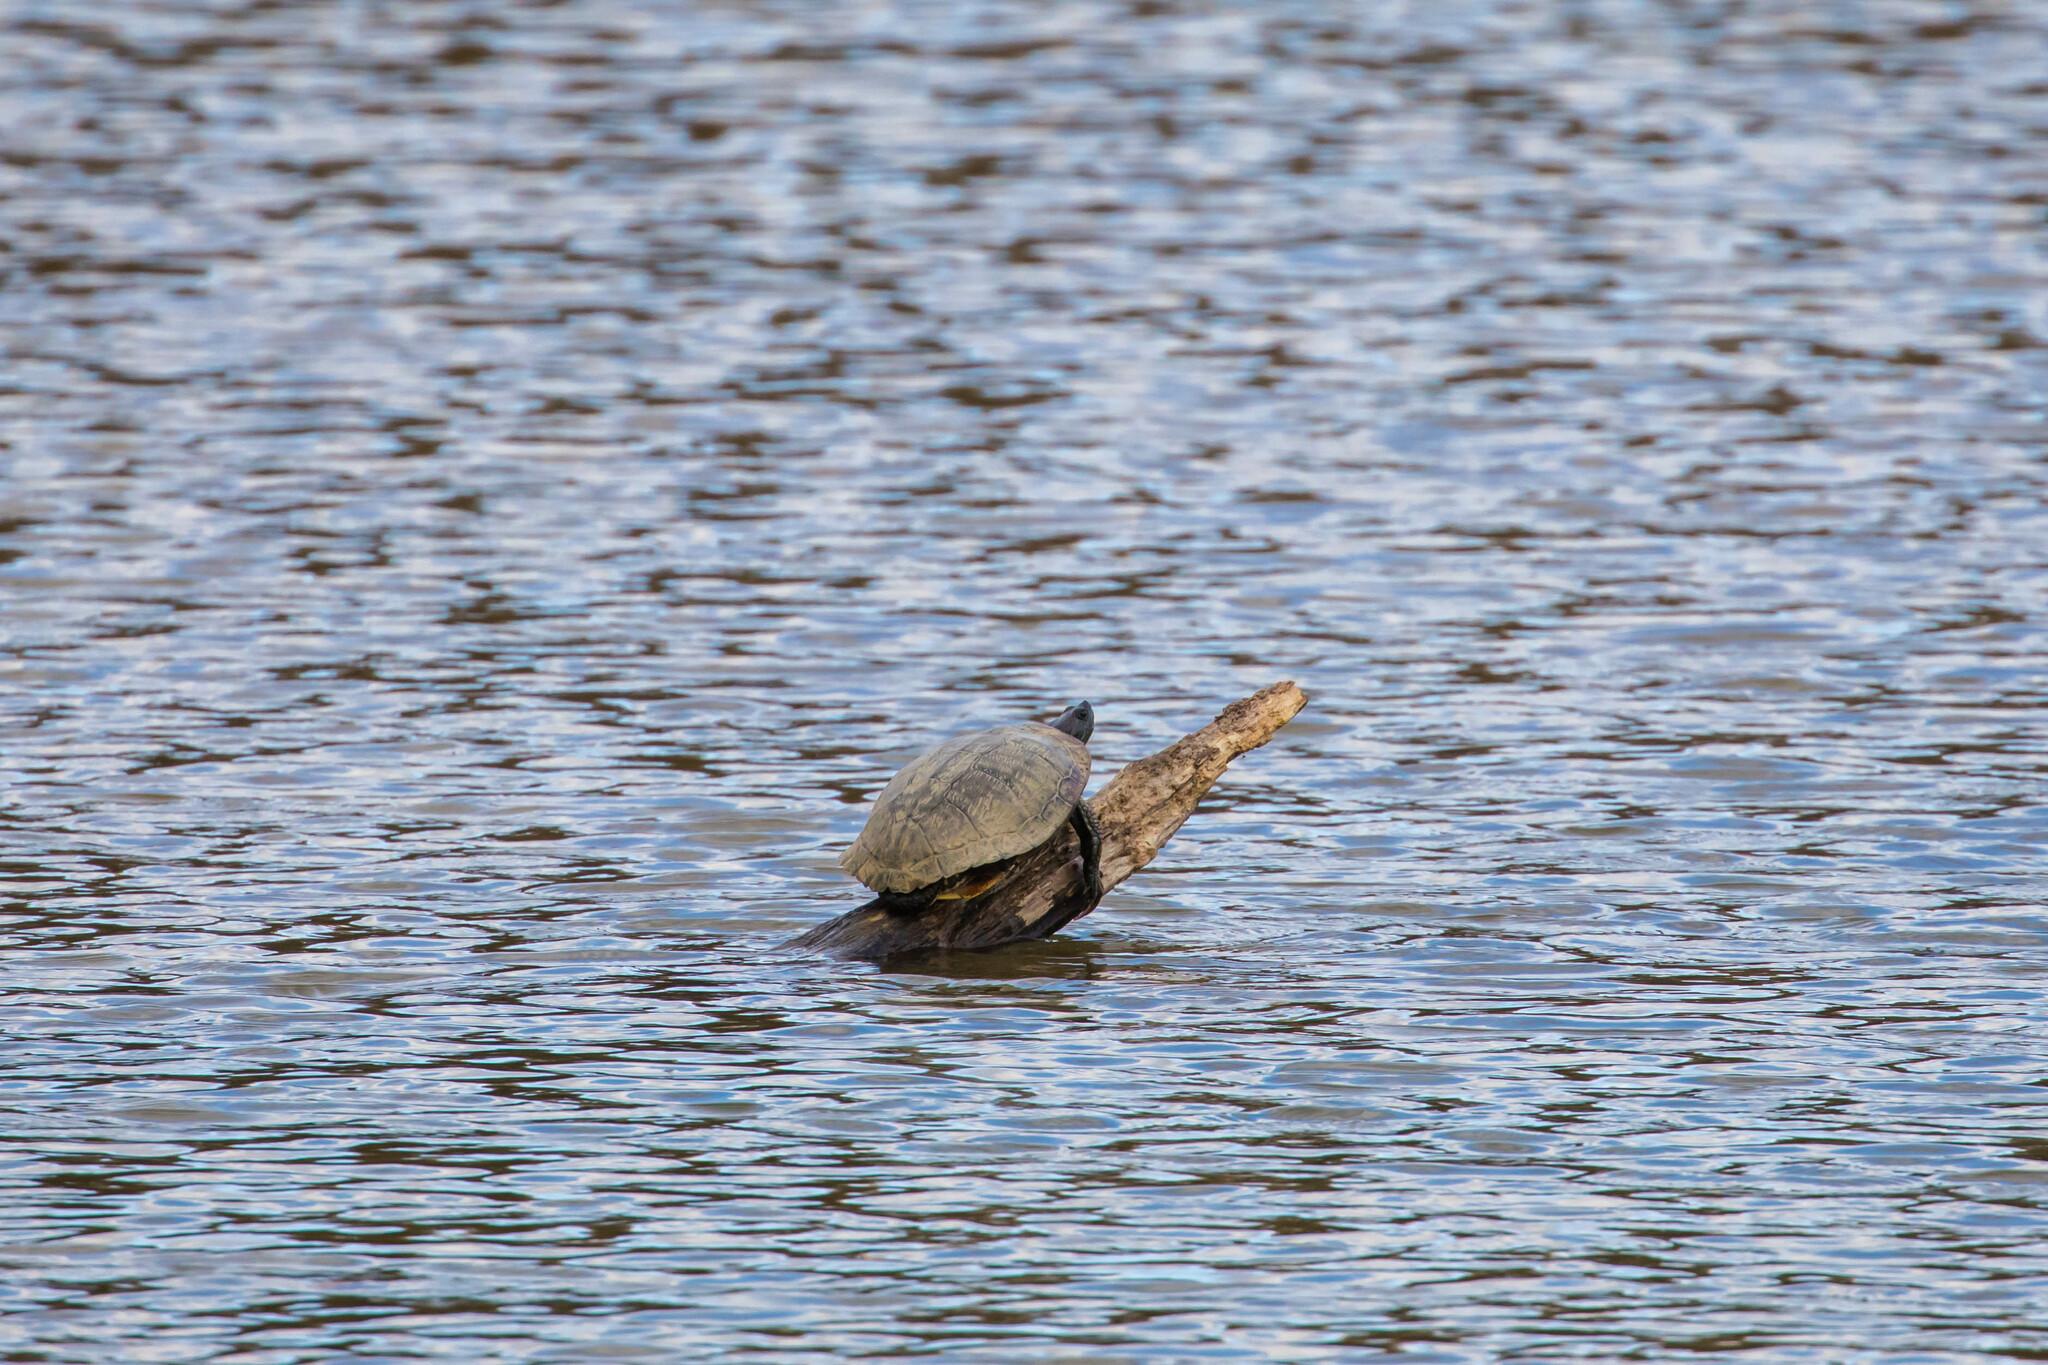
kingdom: Animalia
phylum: Chordata
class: Testudines
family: Emydidae
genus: Trachemys
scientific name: Trachemys scripta
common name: Slider
